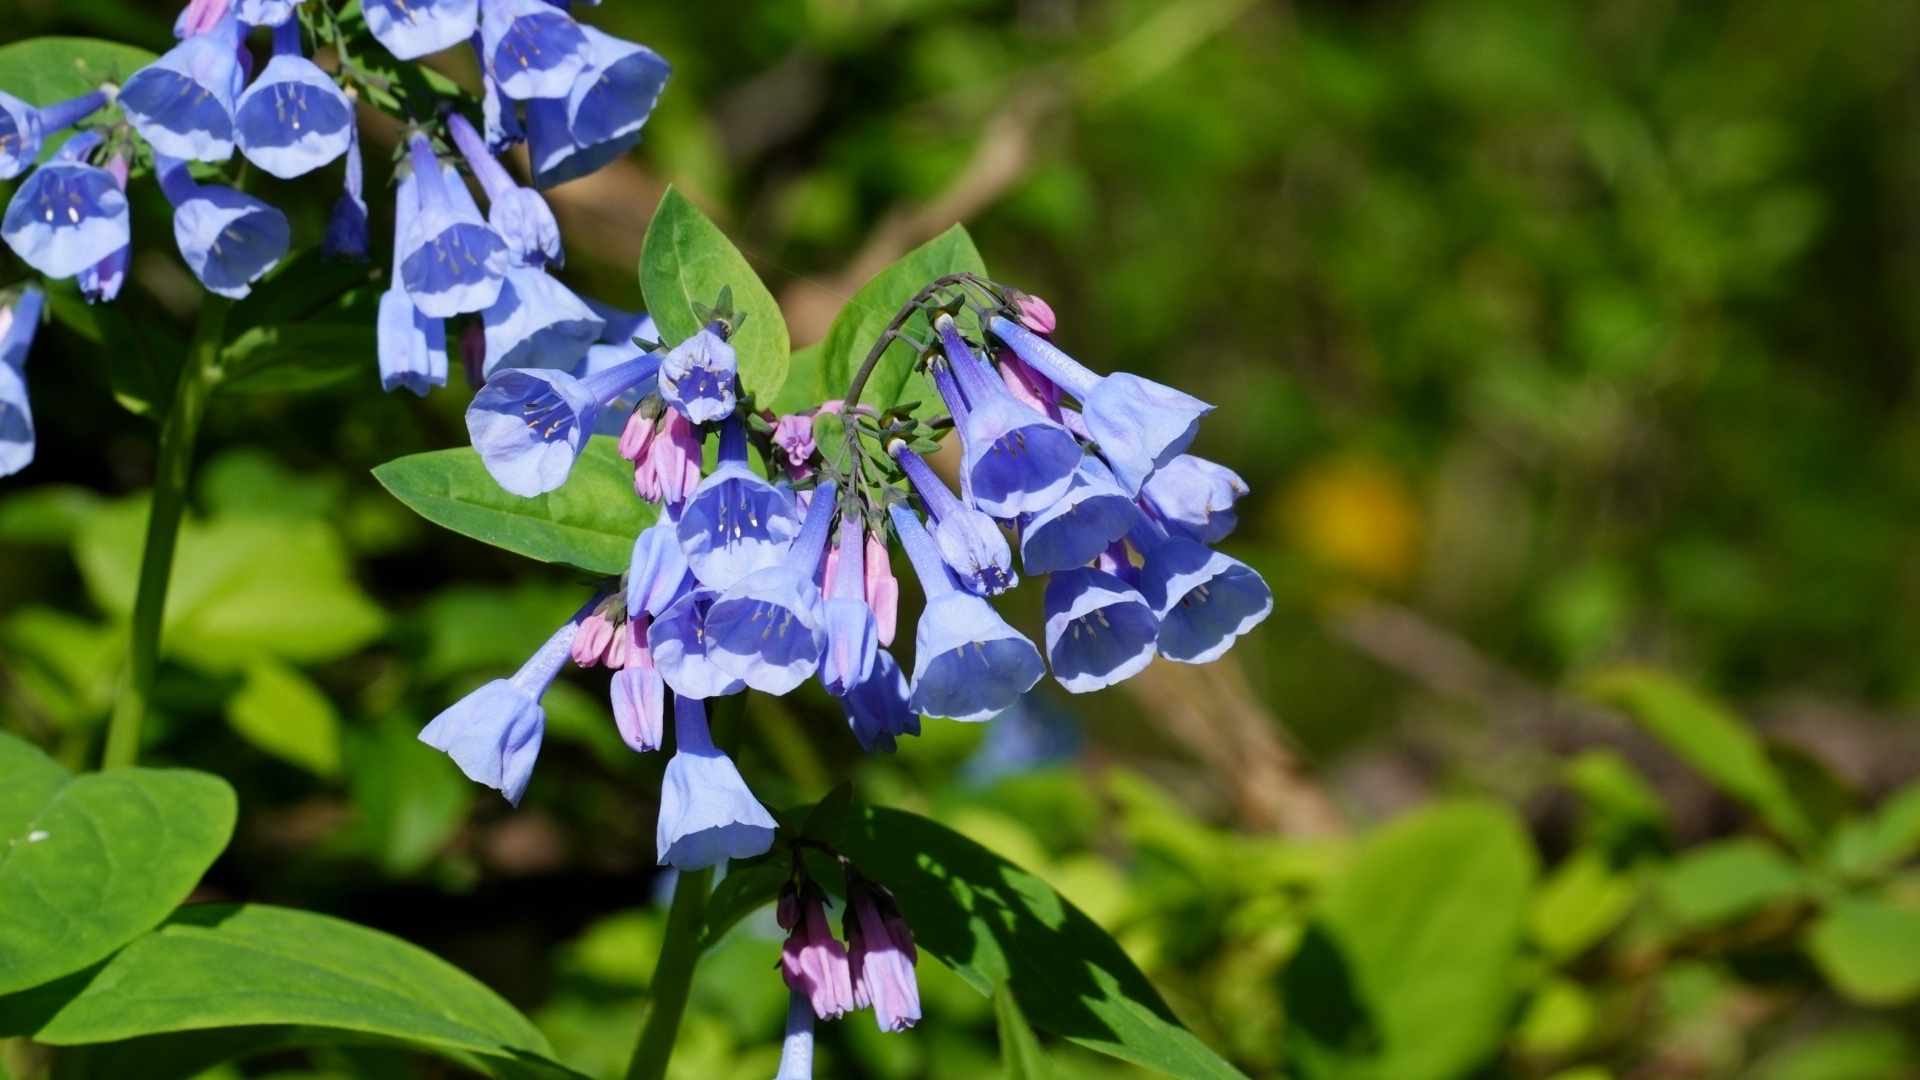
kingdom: Plantae
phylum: Tracheophyta
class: Magnoliopsida
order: Boraginales
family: Boraginaceae
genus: Mertensia
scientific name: Mertensia virginica
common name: Virginia bluebells
